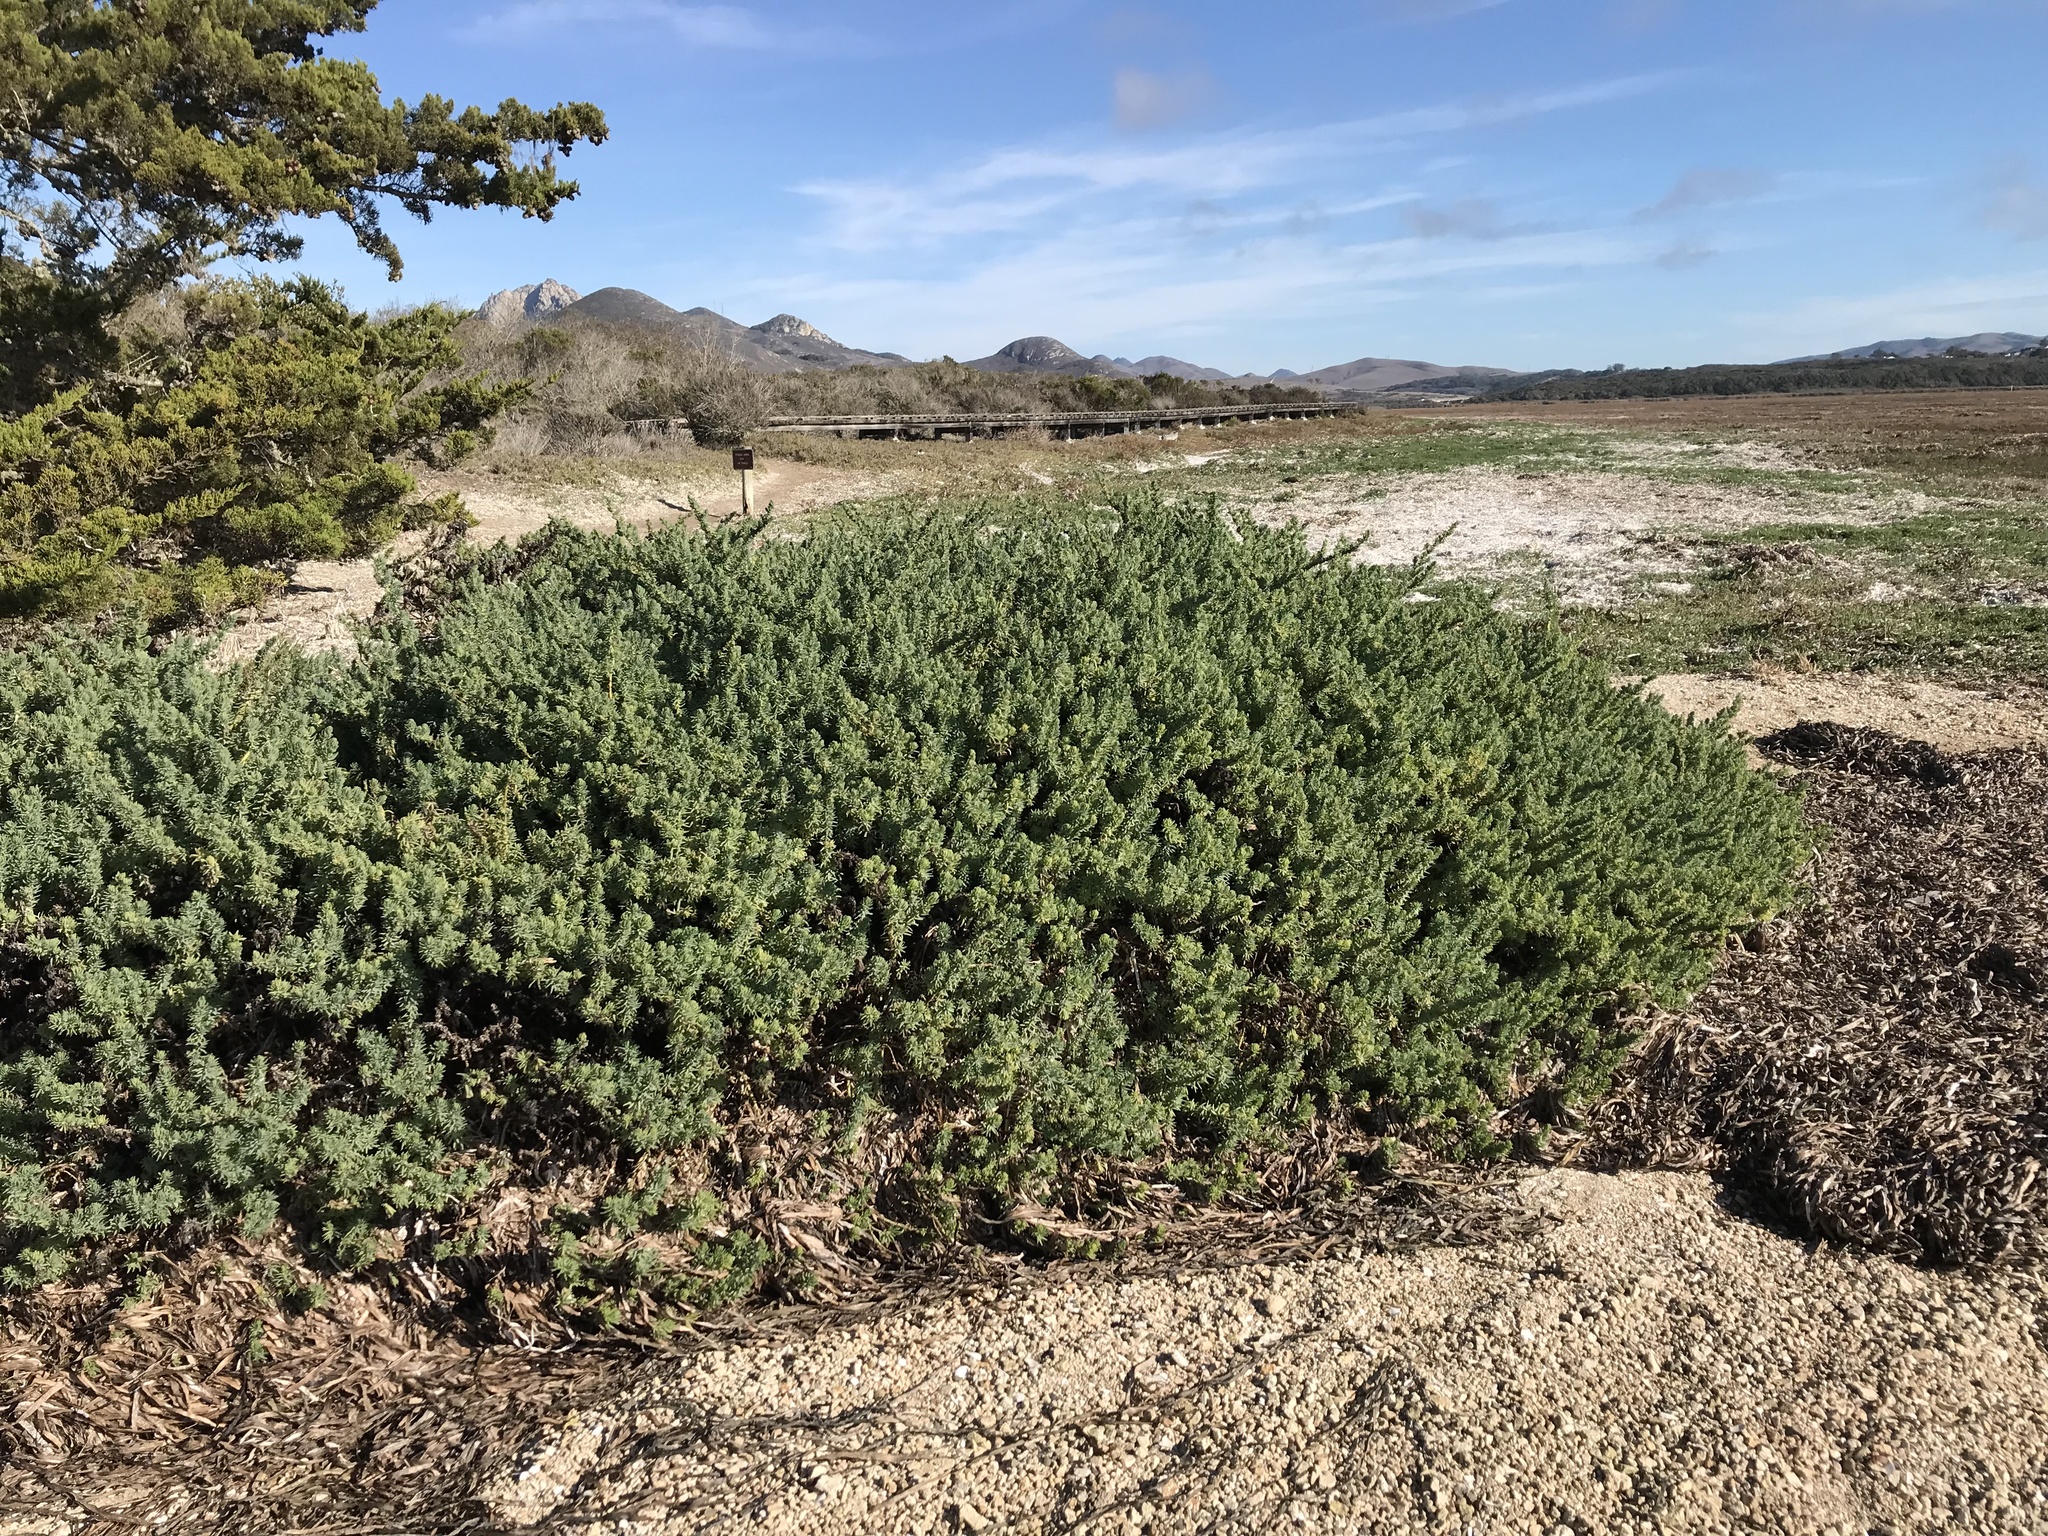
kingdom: Plantae
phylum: Tracheophyta
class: Magnoliopsida
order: Caryophyllales
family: Amaranthaceae
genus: Suaeda
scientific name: Suaeda californica
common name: California sea-blite
